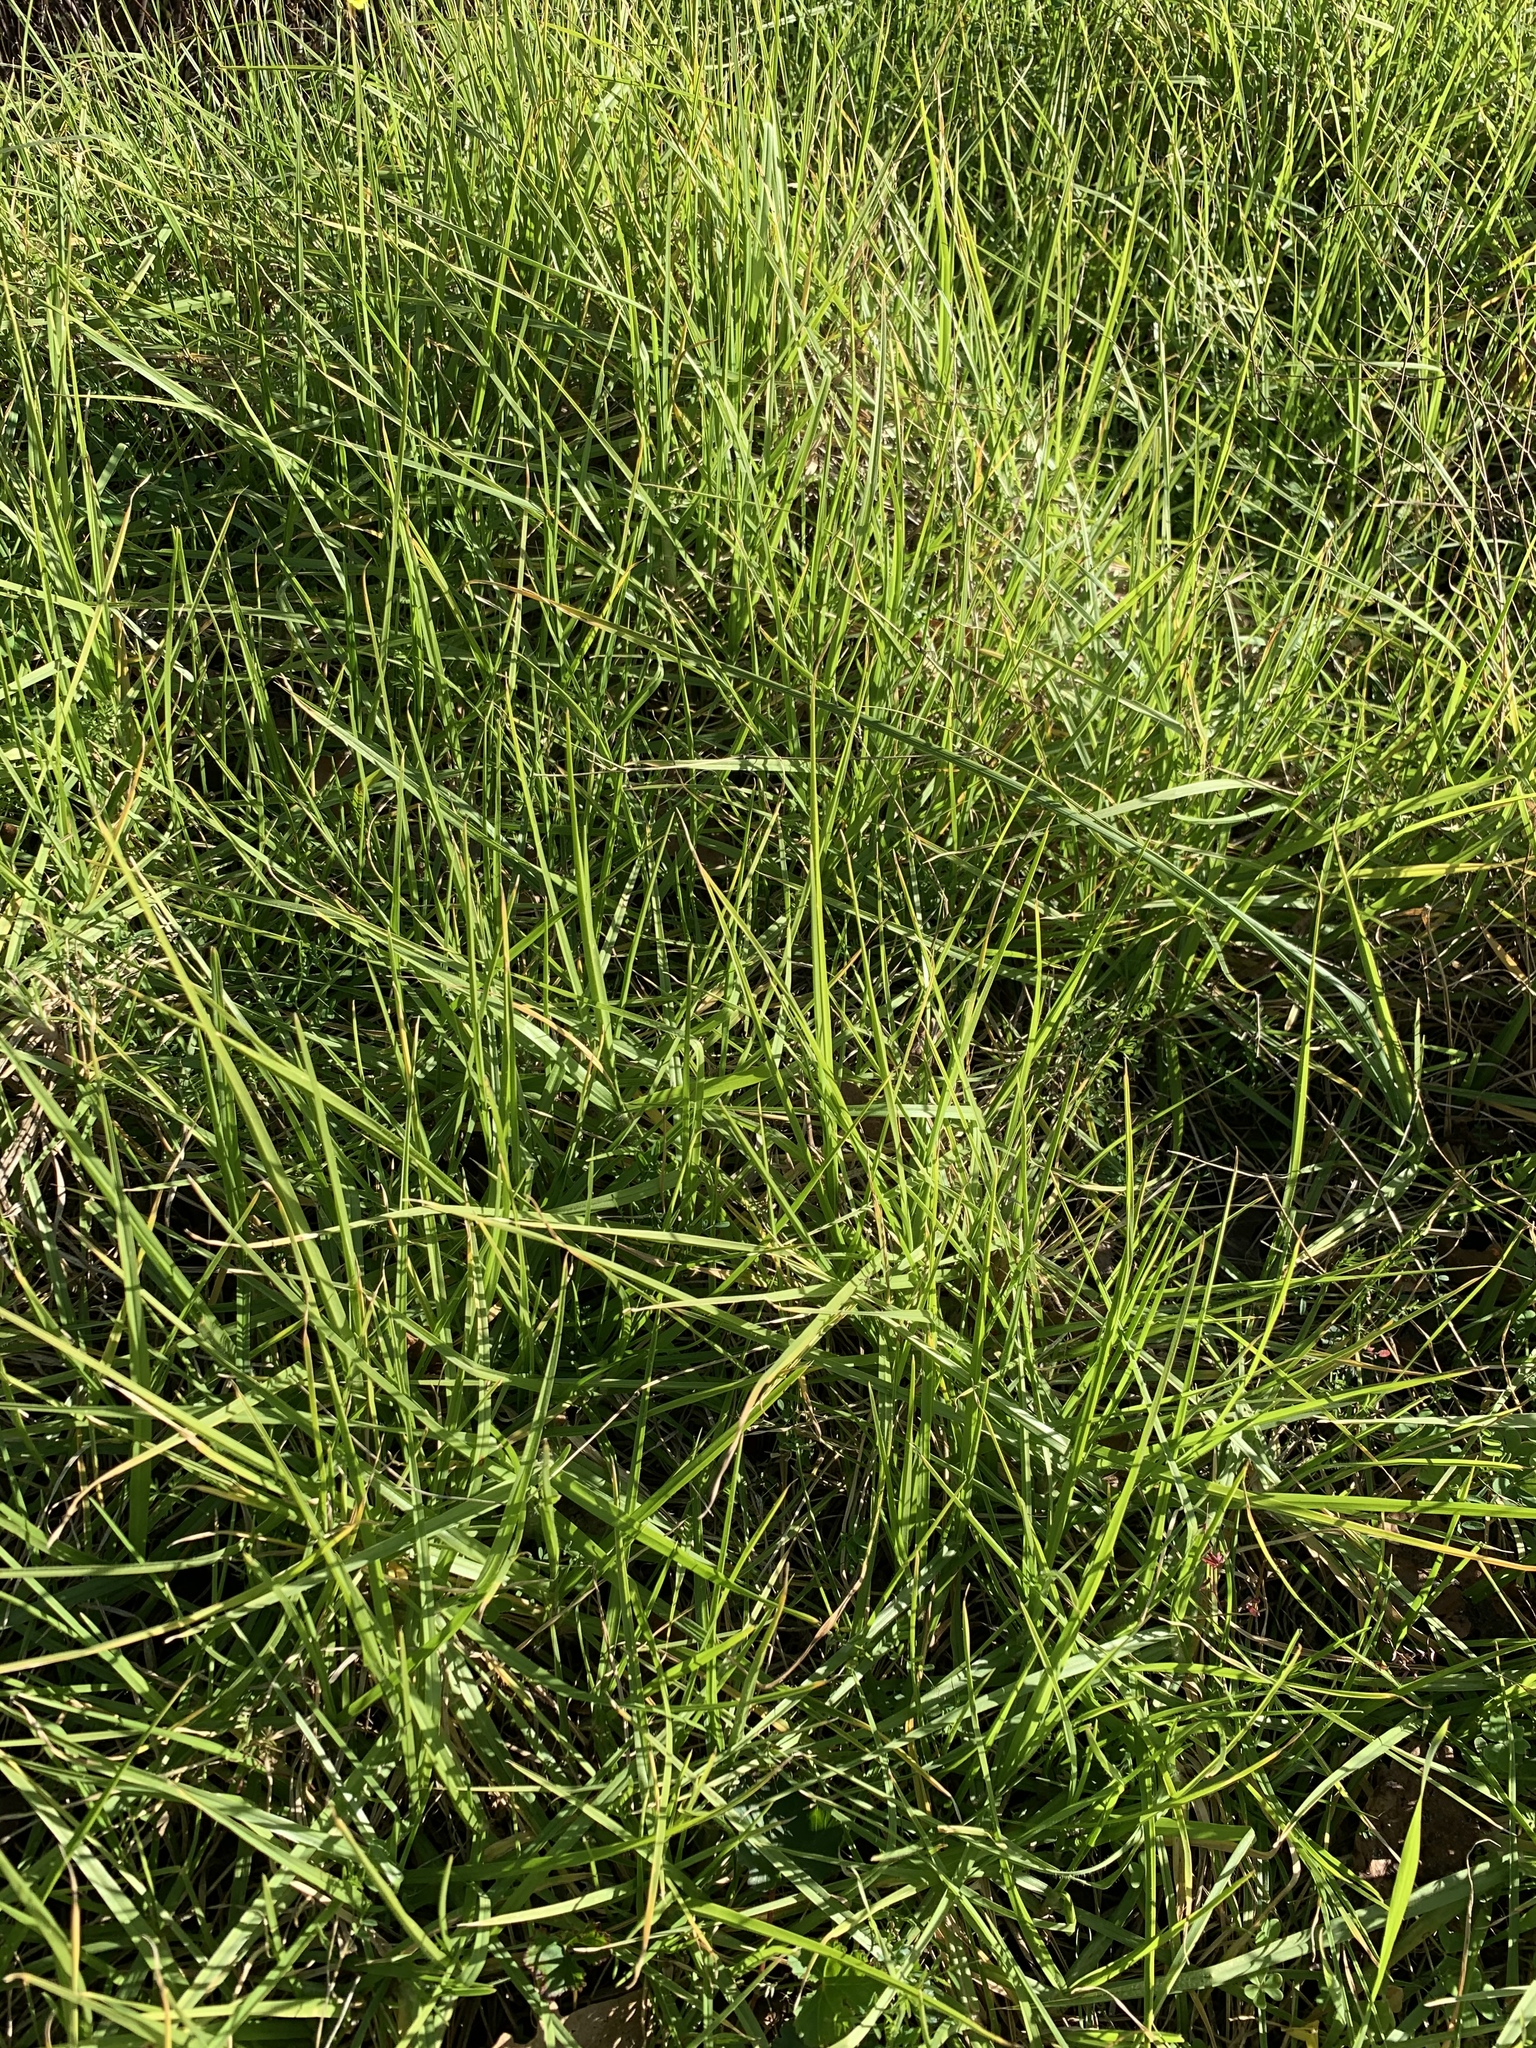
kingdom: Plantae
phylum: Tracheophyta
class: Liliopsida
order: Poales
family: Poaceae
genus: Cenchrus
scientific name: Cenchrus clandestinus
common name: Kikuyugrass
